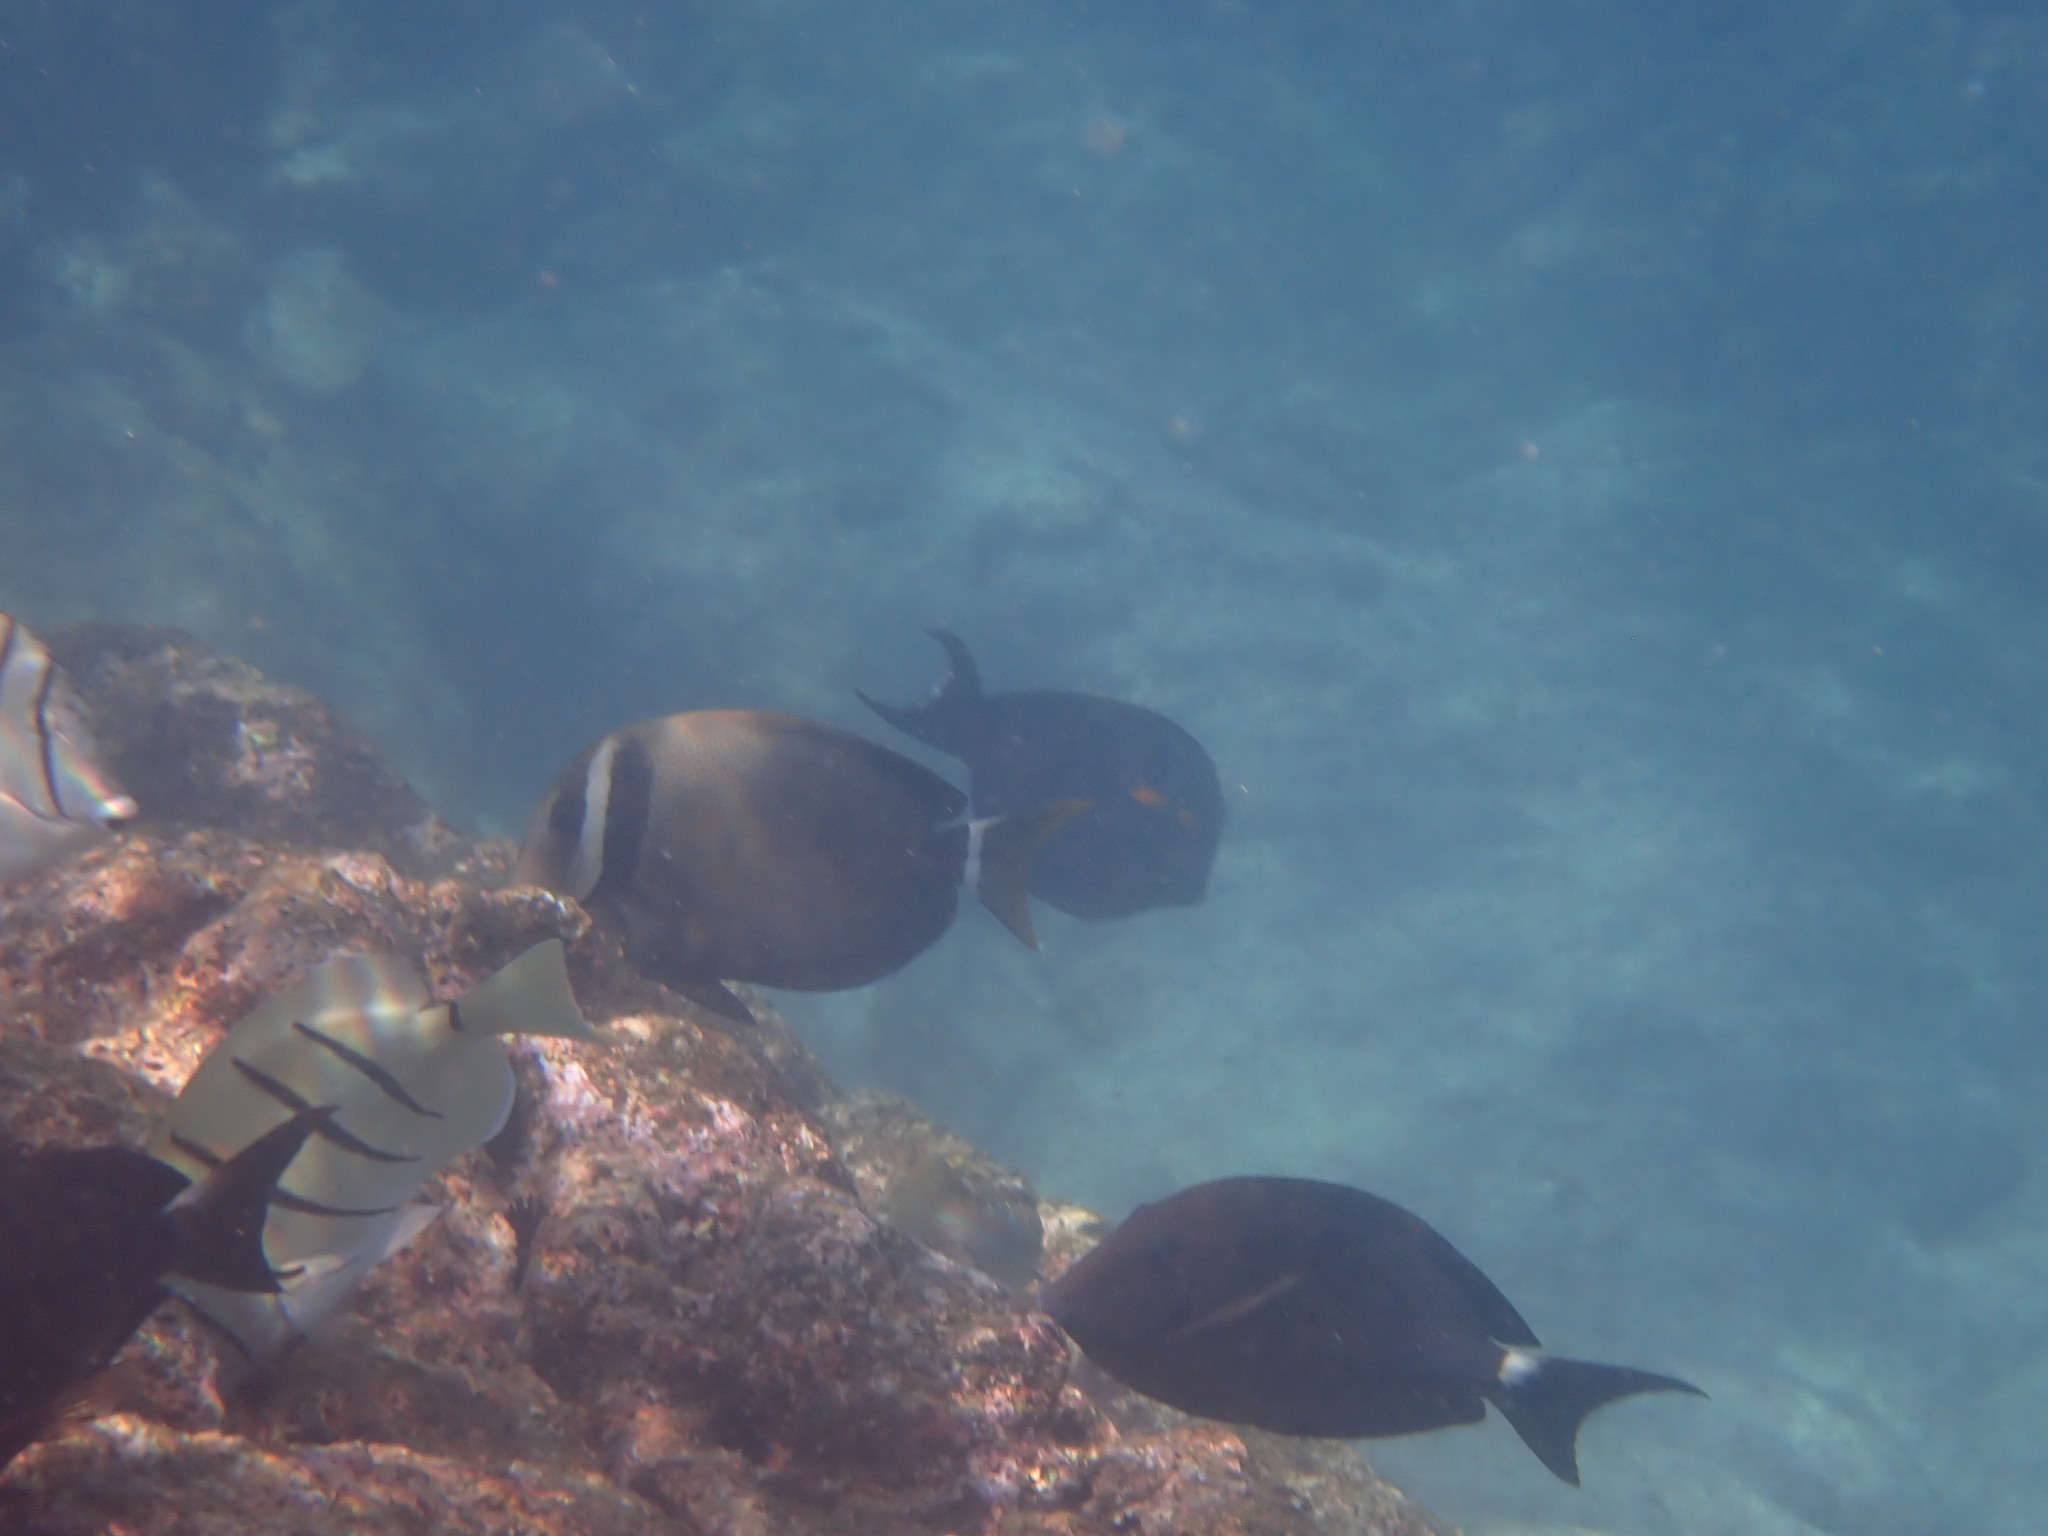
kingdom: Animalia
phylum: Chordata
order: Perciformes
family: Acanthuridae
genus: Acanthurus
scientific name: Acanthurus leucopareius
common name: Head-band surgeonfish
